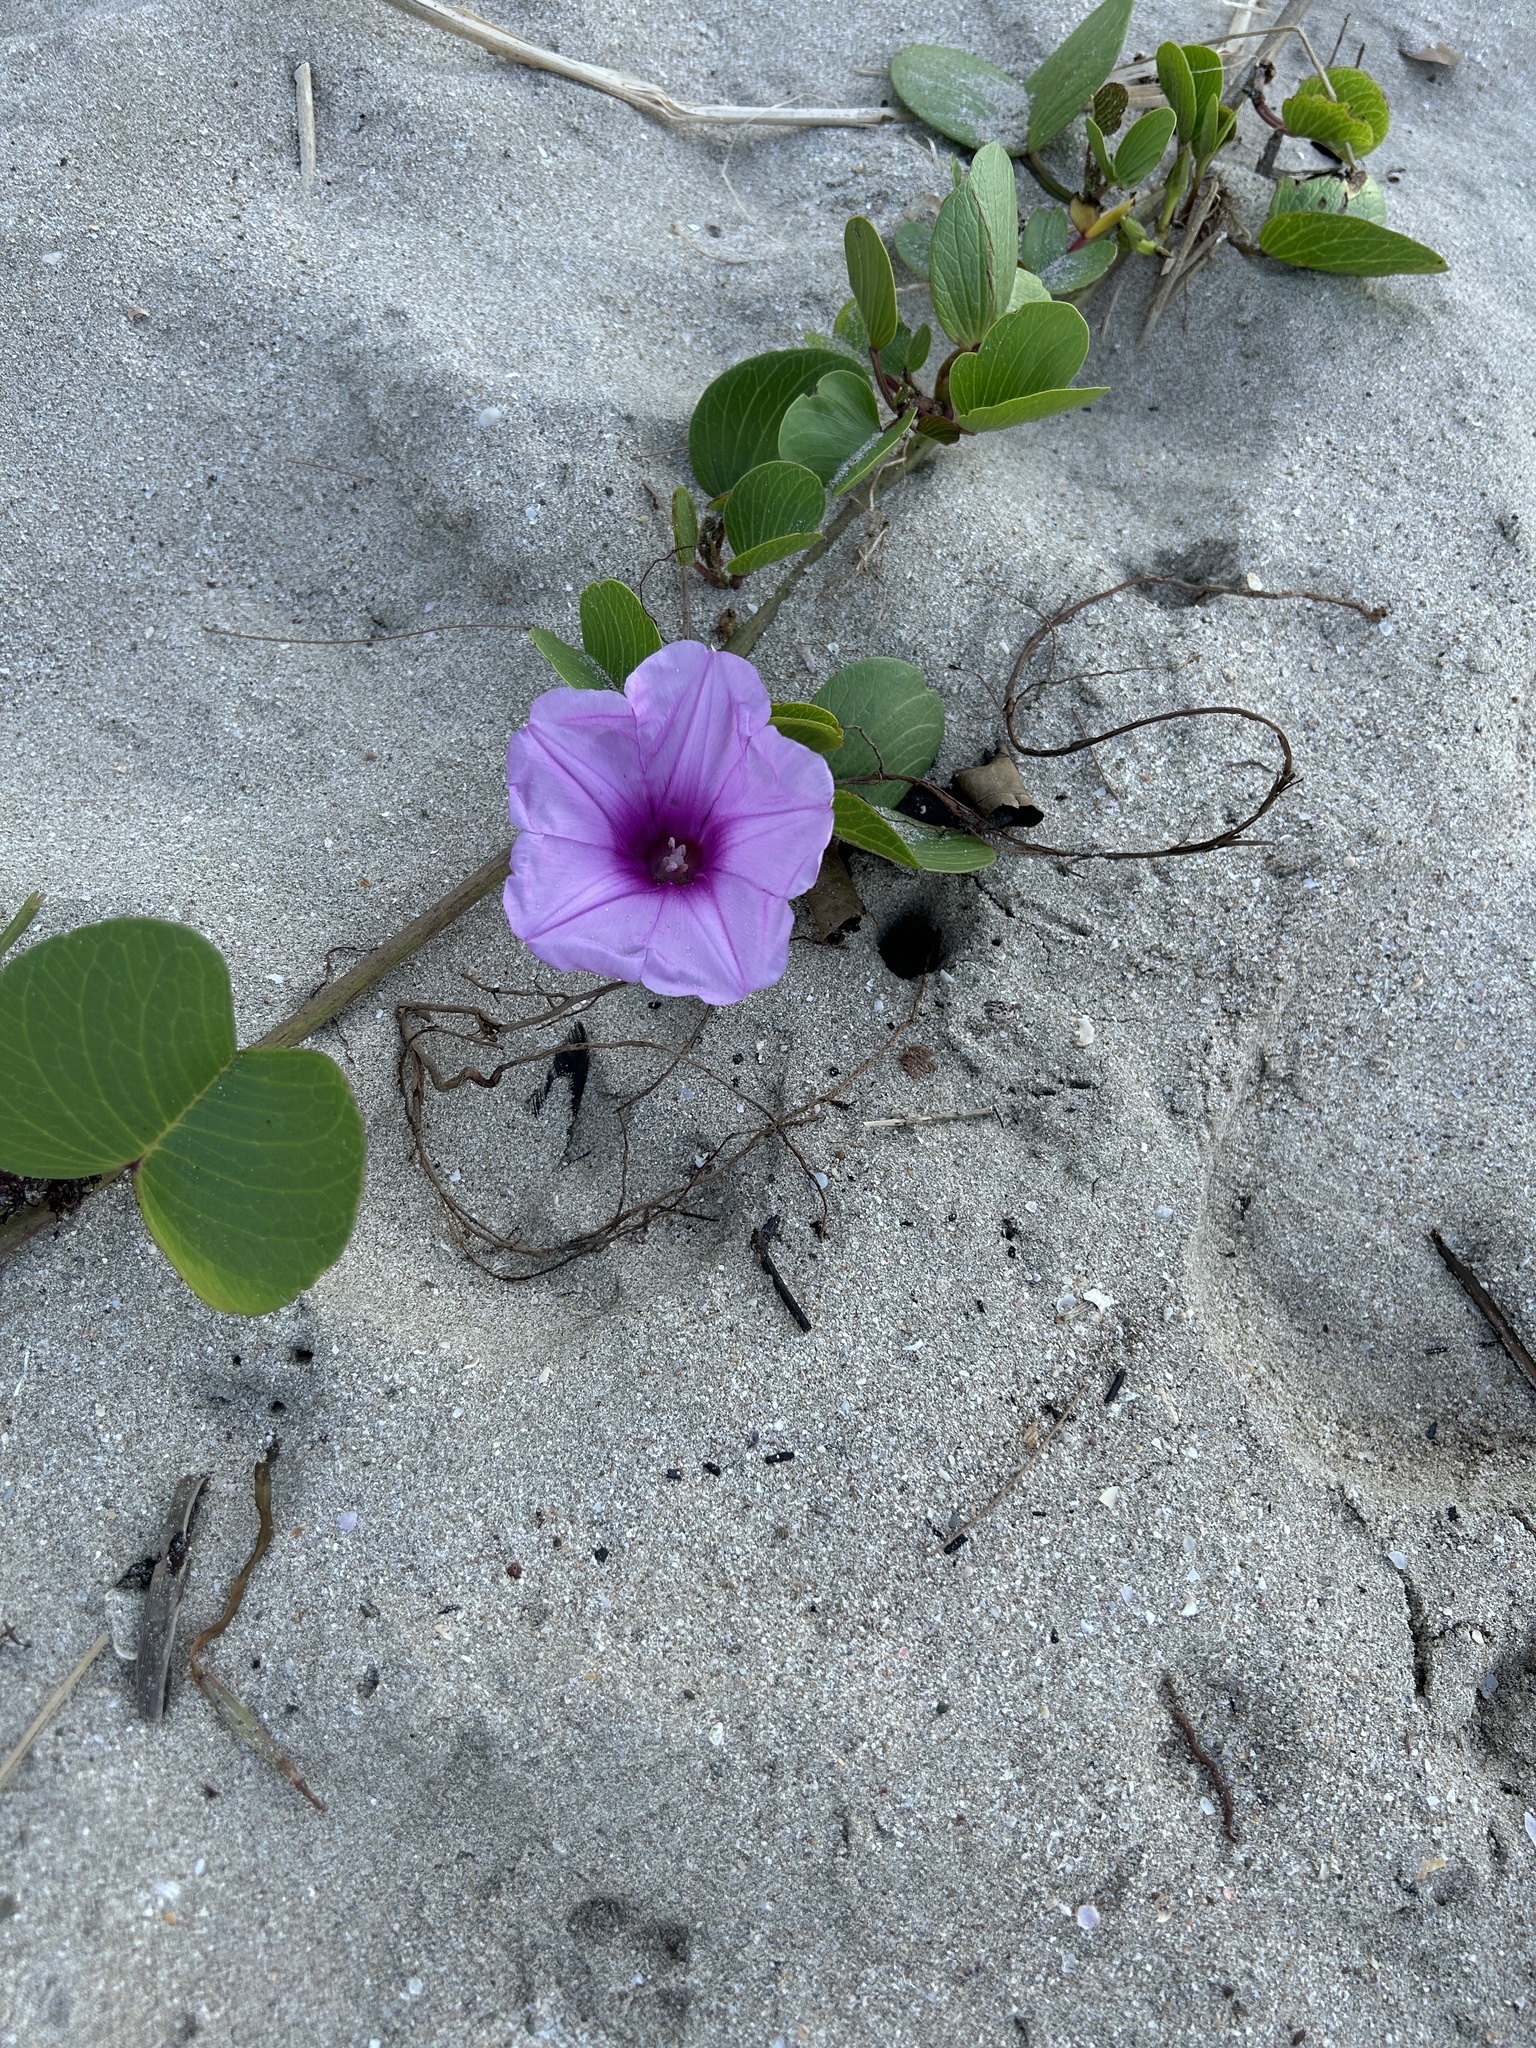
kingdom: Plantae
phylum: Tracheophyta
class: Magnoliopsida
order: Solanales
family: Convolvulaceae
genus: Ipomoea
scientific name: Ipomoea pes-caprae
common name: Beach morning glory
